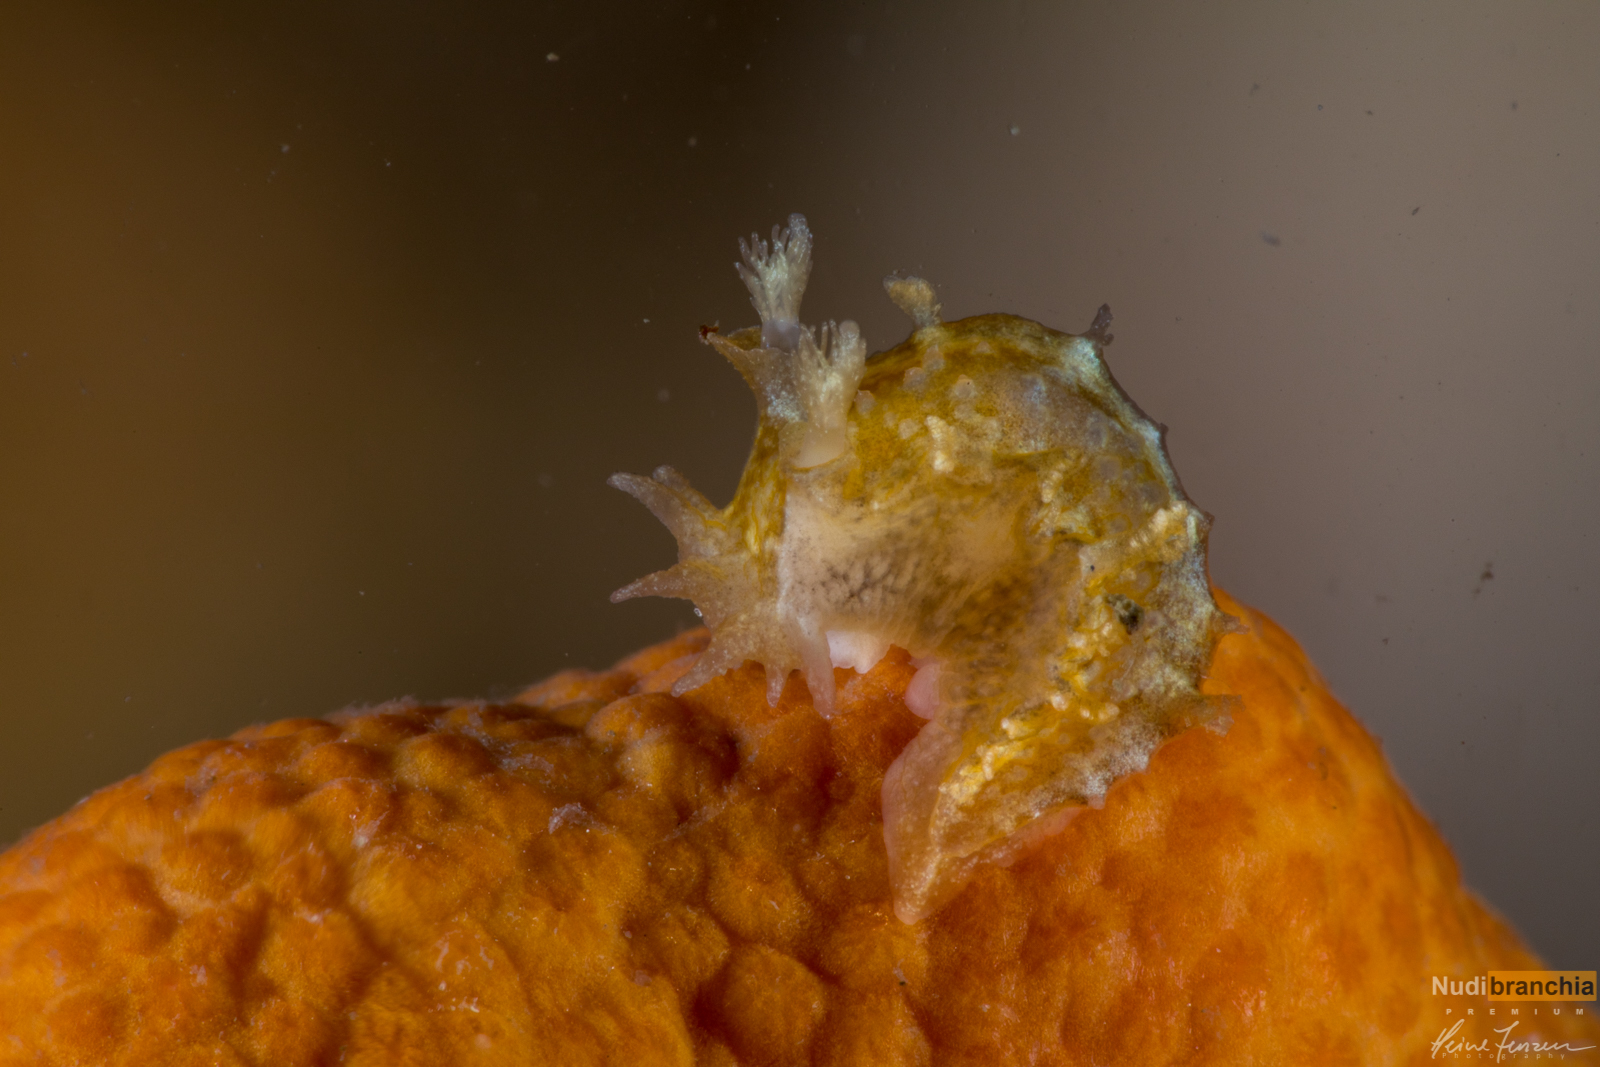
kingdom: Animalia
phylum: Mollusca
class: Gastropoda
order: Nudibranchia
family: Tritoniidae
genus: Duvaucelia
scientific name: Duvaucelia plebeia
